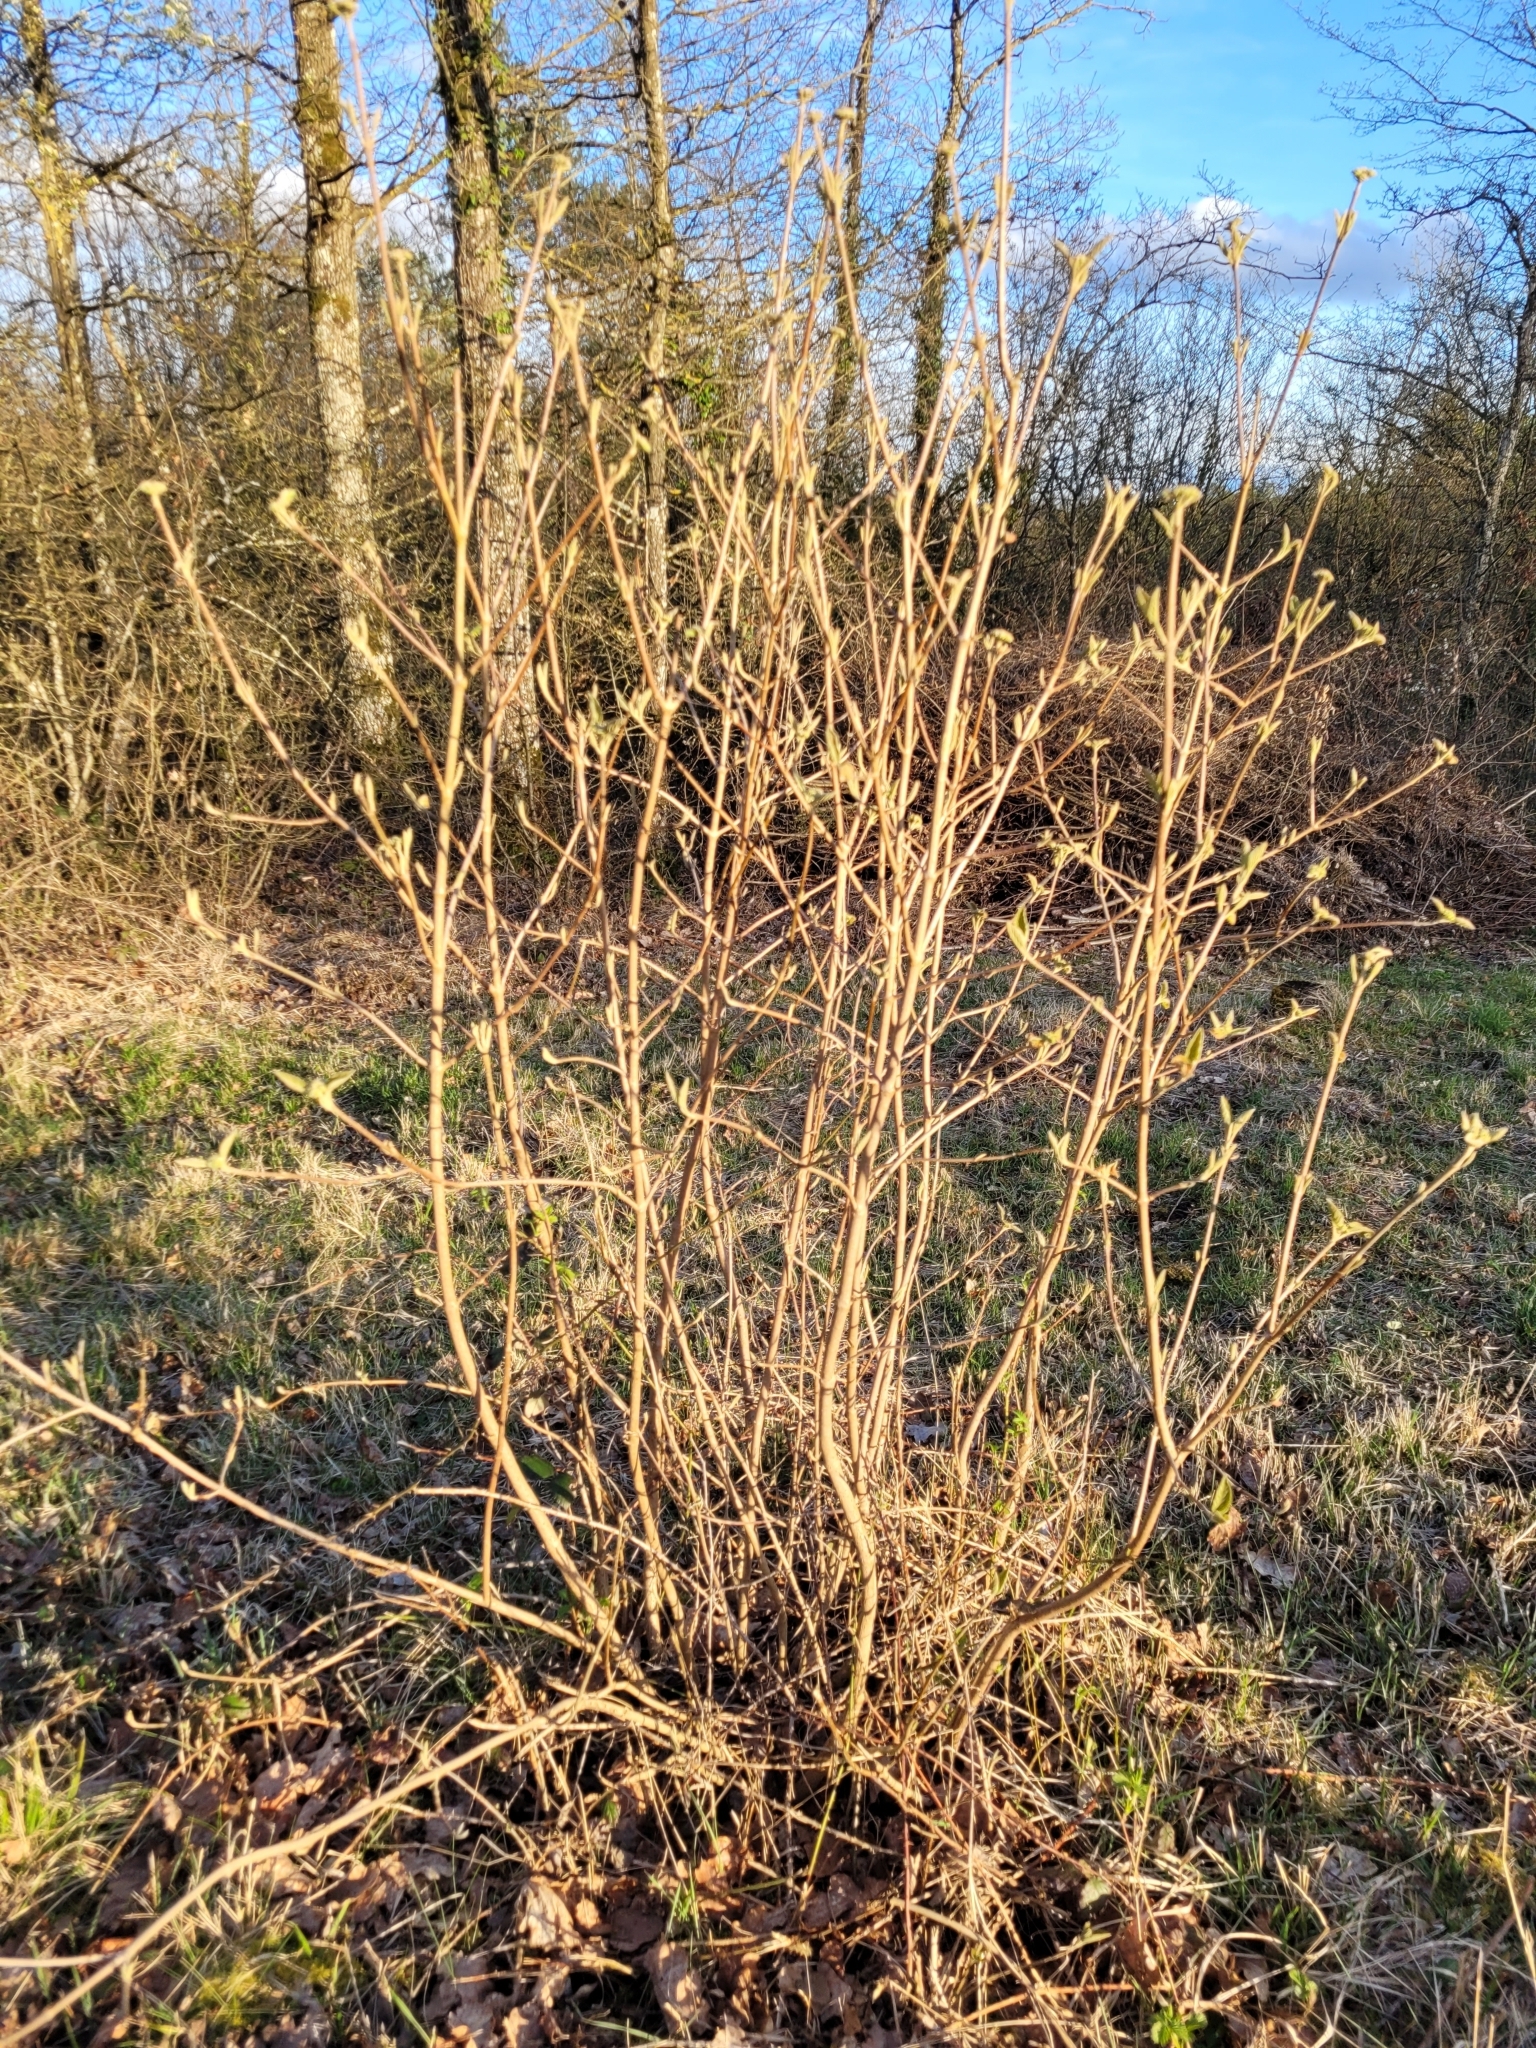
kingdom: Plantae
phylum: Tracheophyta
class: Magnoliopsida
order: Dipsacales
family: Viburnaceae
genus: Viburnum
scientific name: Viburnum lantana
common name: Wayfaring tree
